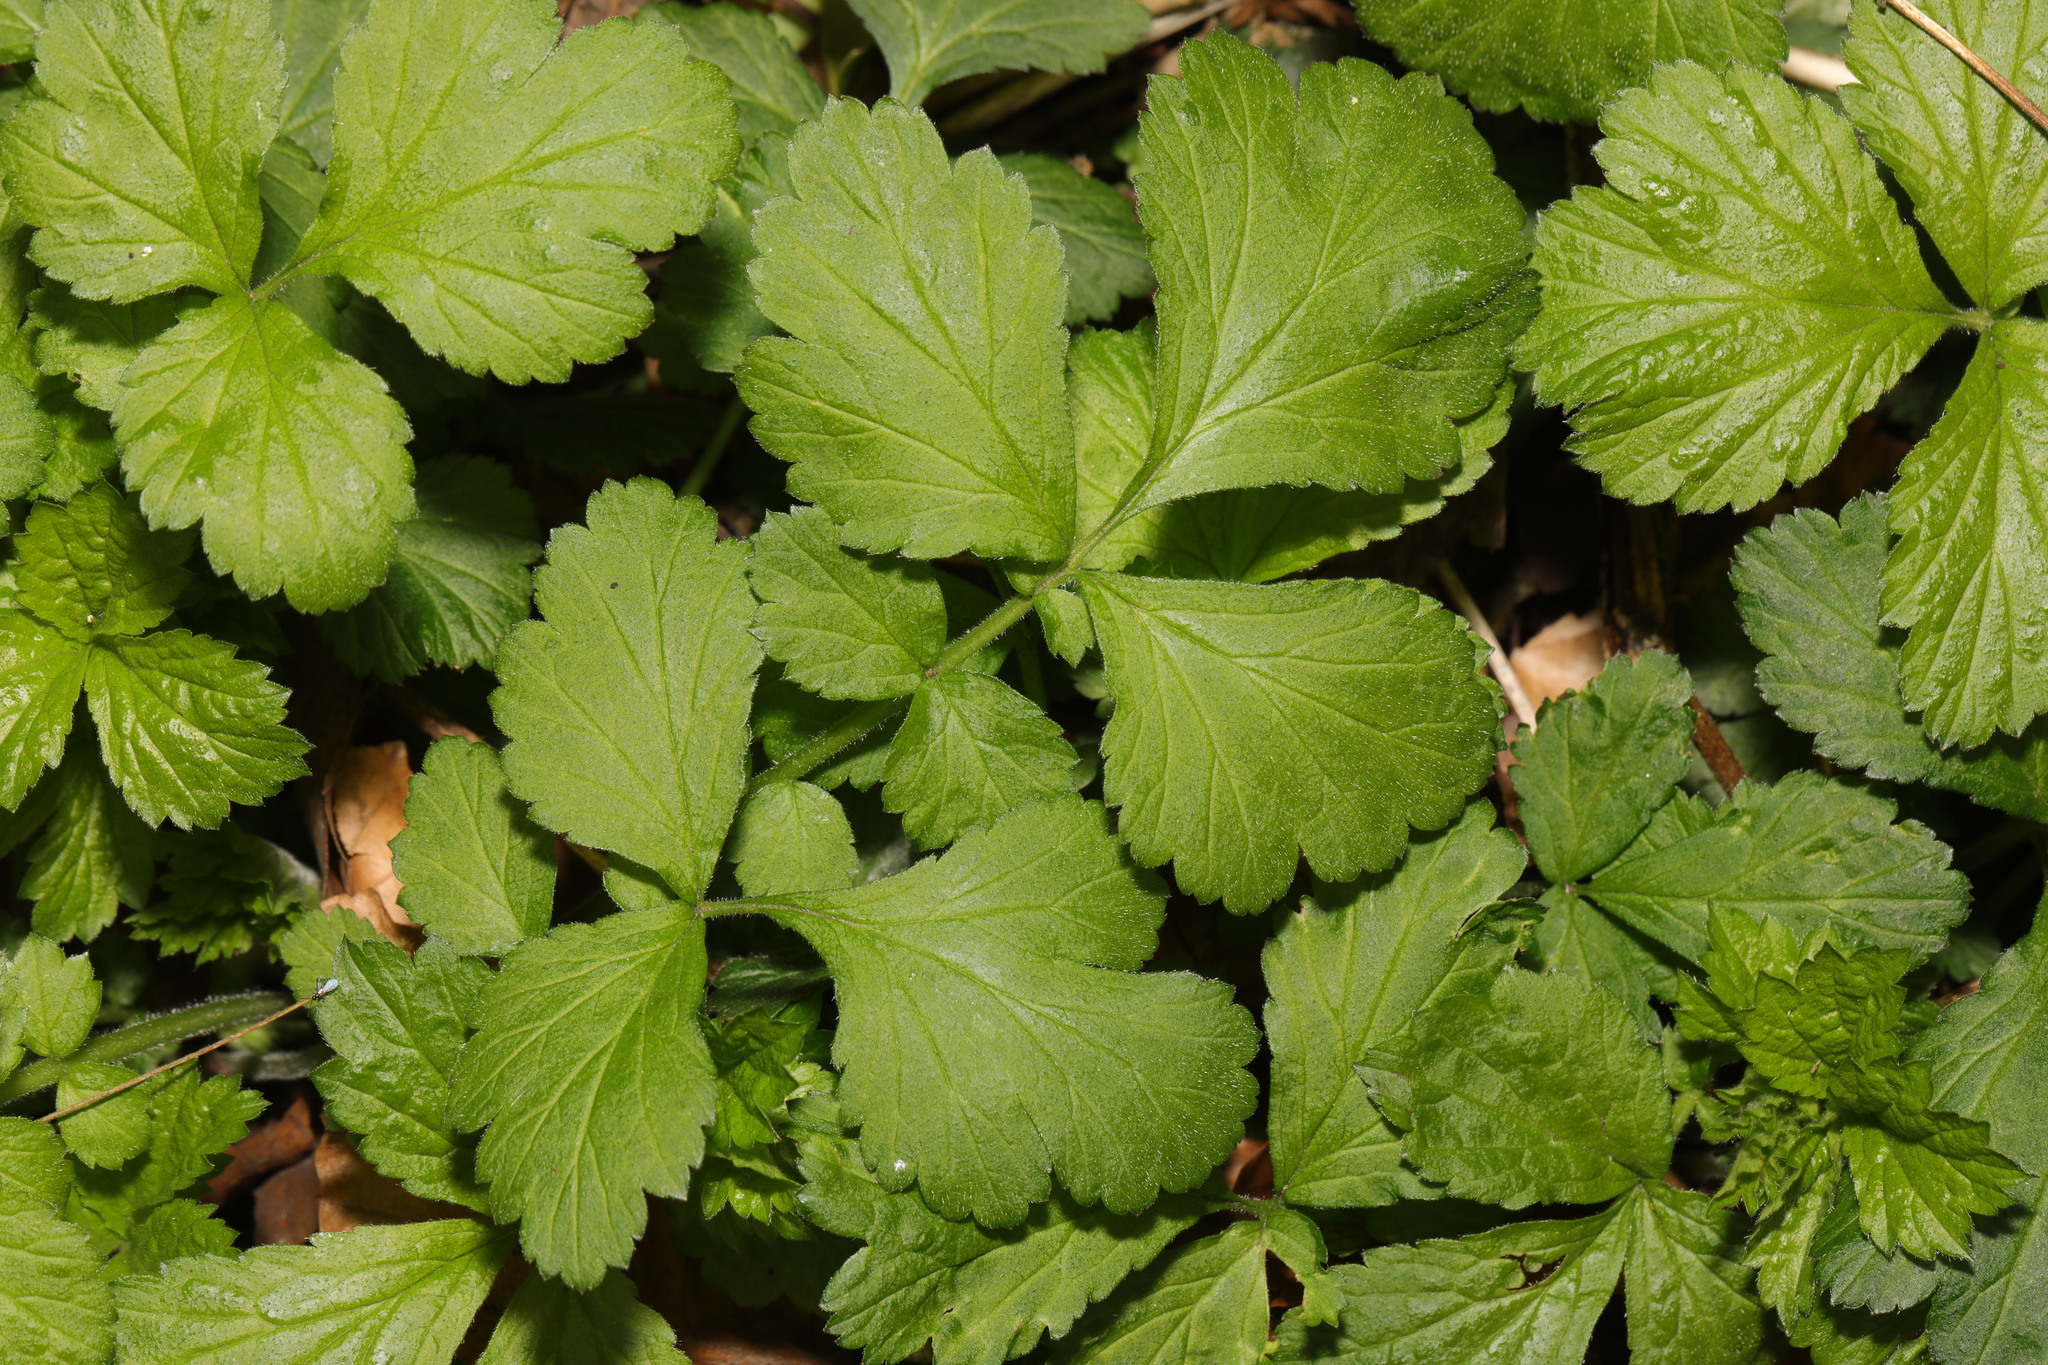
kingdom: Plantae
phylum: Tracheophyta
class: Magnoliopsida
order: Rosales
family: Rosaceae
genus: Geum
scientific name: Geum urbanum
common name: Wood avens
